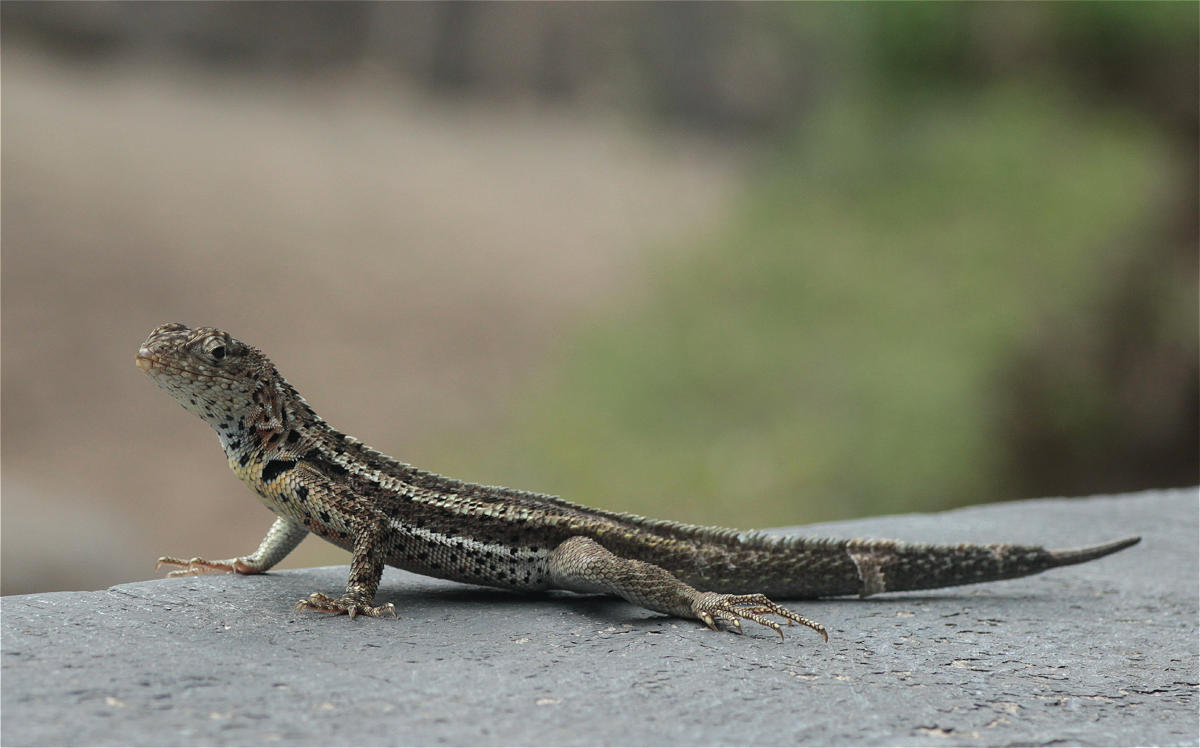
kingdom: Animalia
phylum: Chordata
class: Squamata
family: Tropiduridae
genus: Microlophus
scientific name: Microlophus albemarlensis
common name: Galapagos lava lizard
